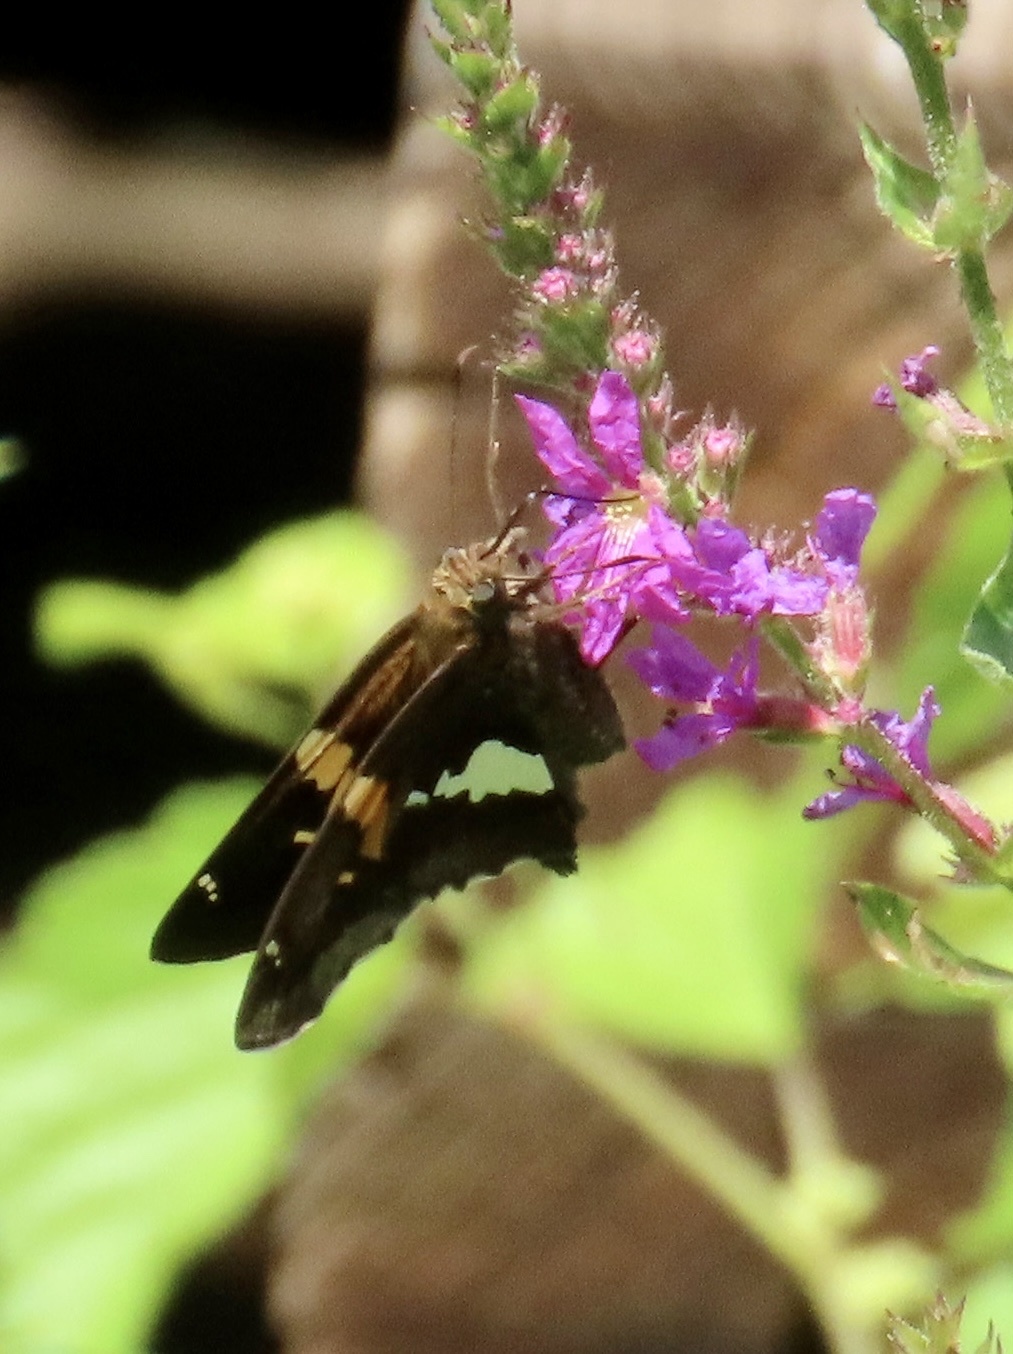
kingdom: Animalia
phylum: Arthropoda
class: Insecta
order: Lepidoptera
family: Hesperiidae
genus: Epargyreus
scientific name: Epargyreus clarus
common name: Silver-spotted skipper
